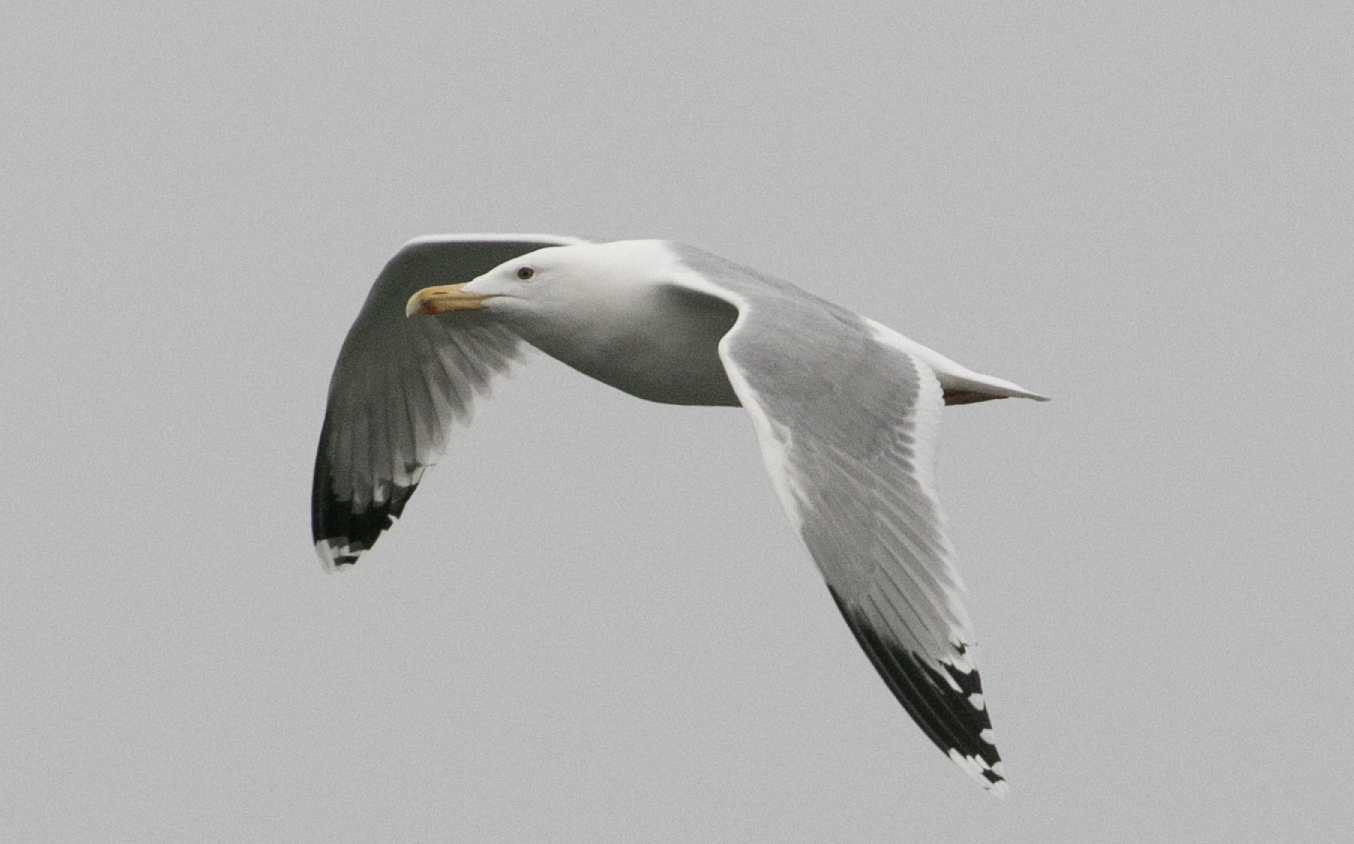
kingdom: Animalia
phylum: Chordata
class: Aves
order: Charadriiformes
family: Laridae
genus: Larus
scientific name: Larus cachinnans
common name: Caspian gull
